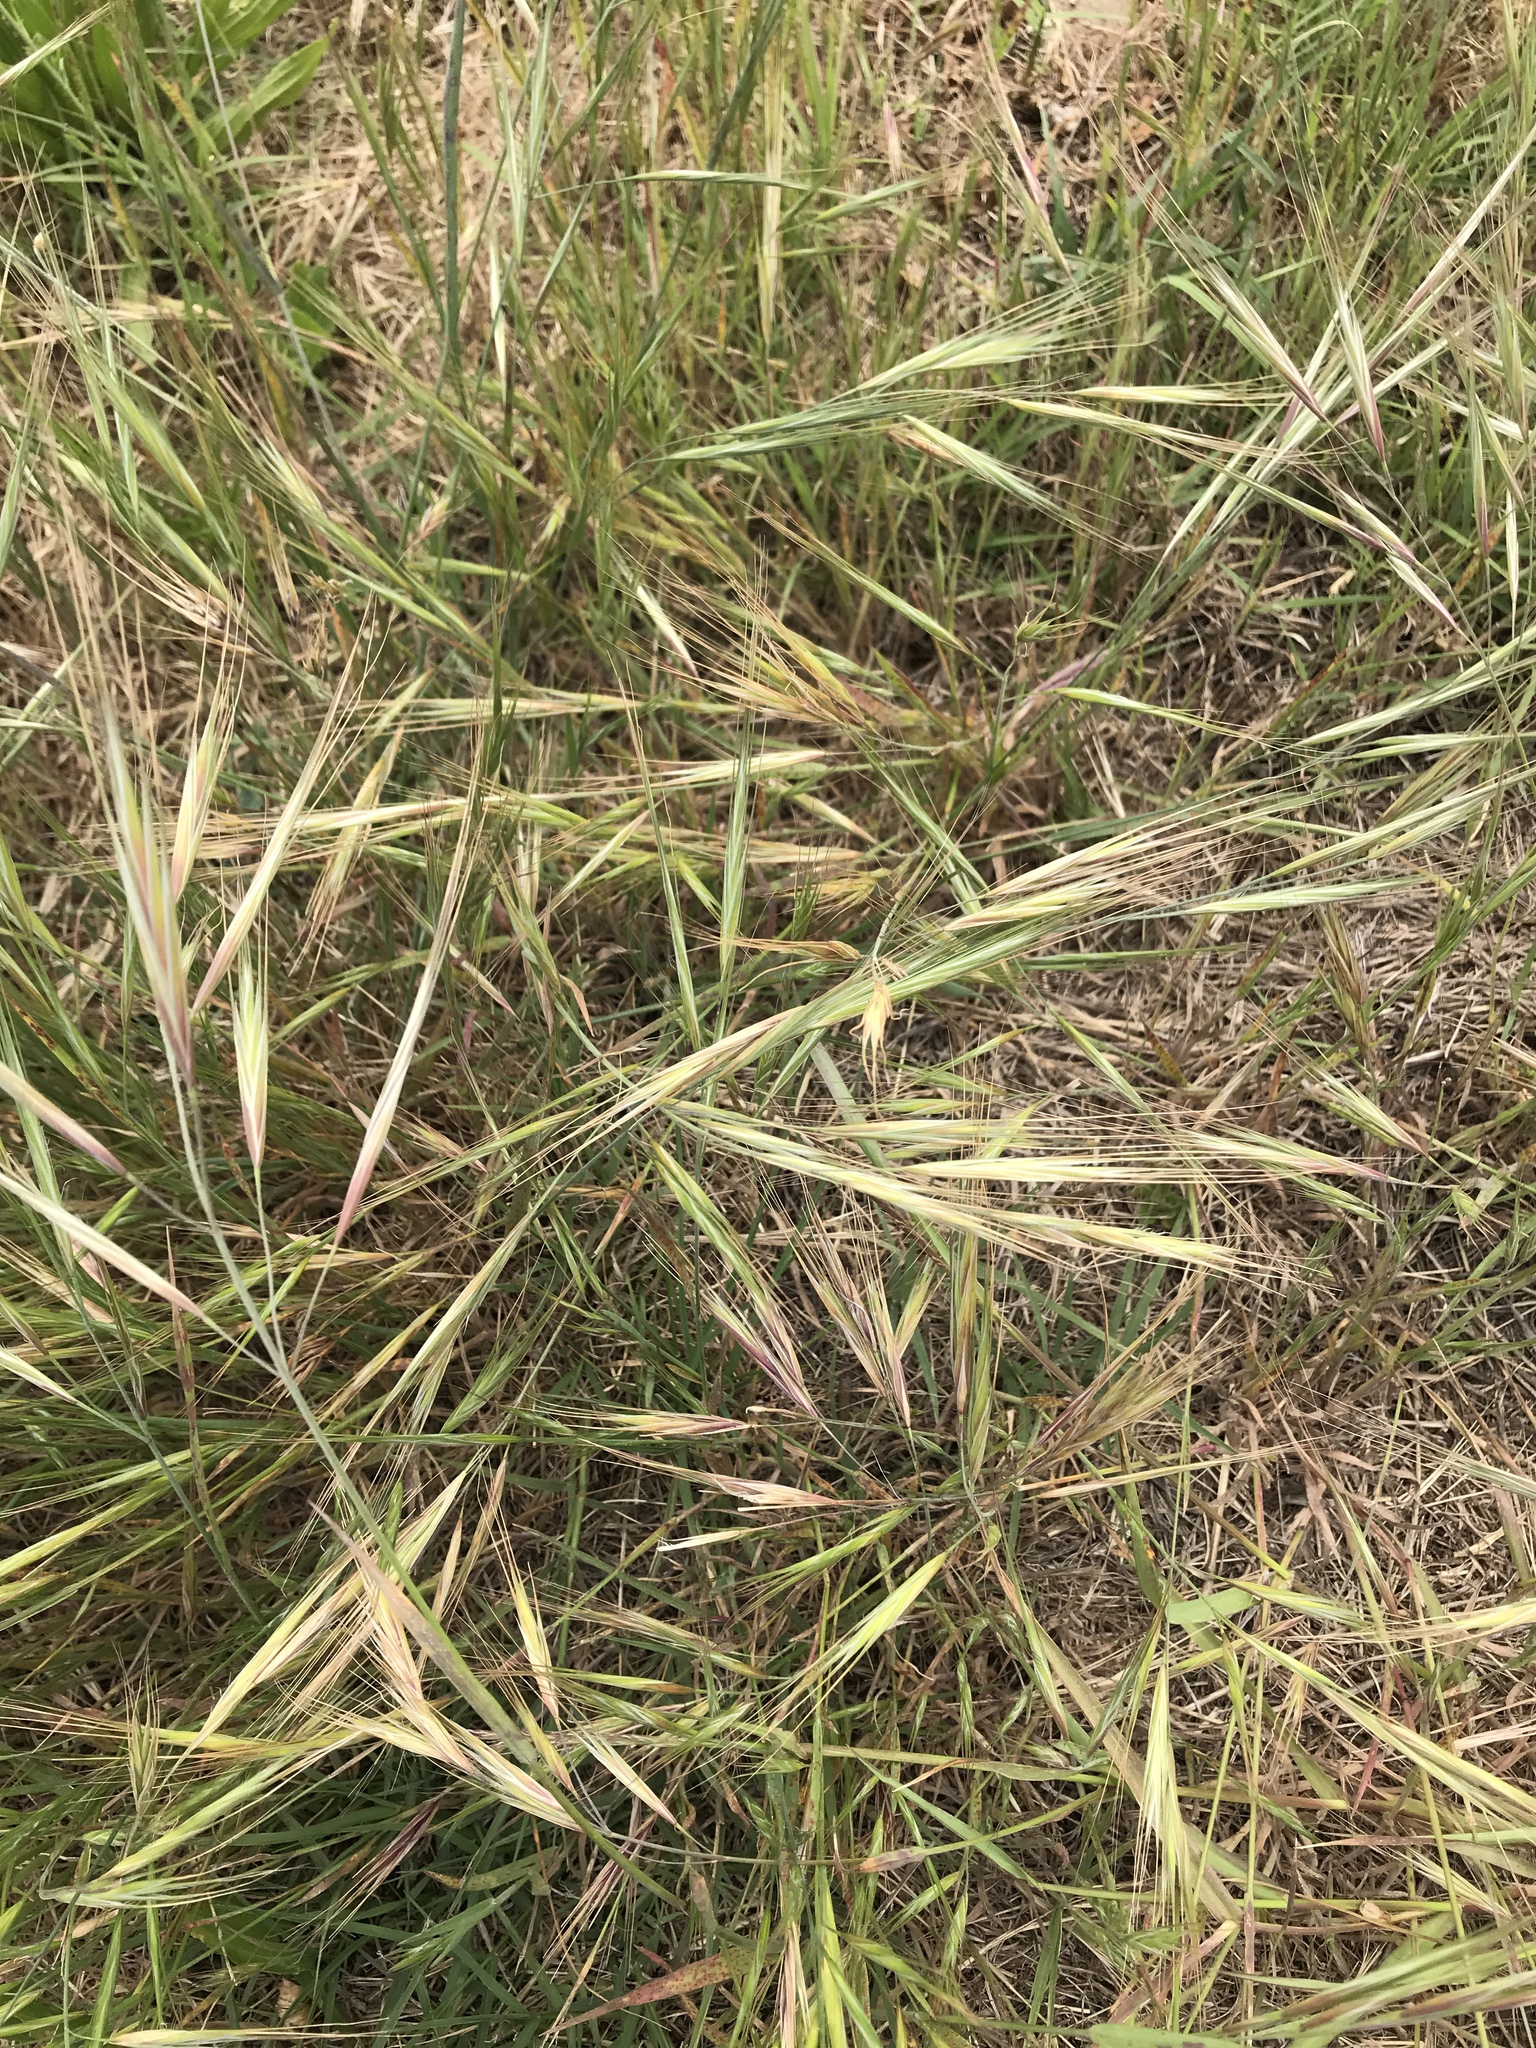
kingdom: Plantae
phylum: Tracheophyta
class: Liliopsida
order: Poales
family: Poaceae
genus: Bromus
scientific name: Bromus diandrus
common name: Ripgut brome
